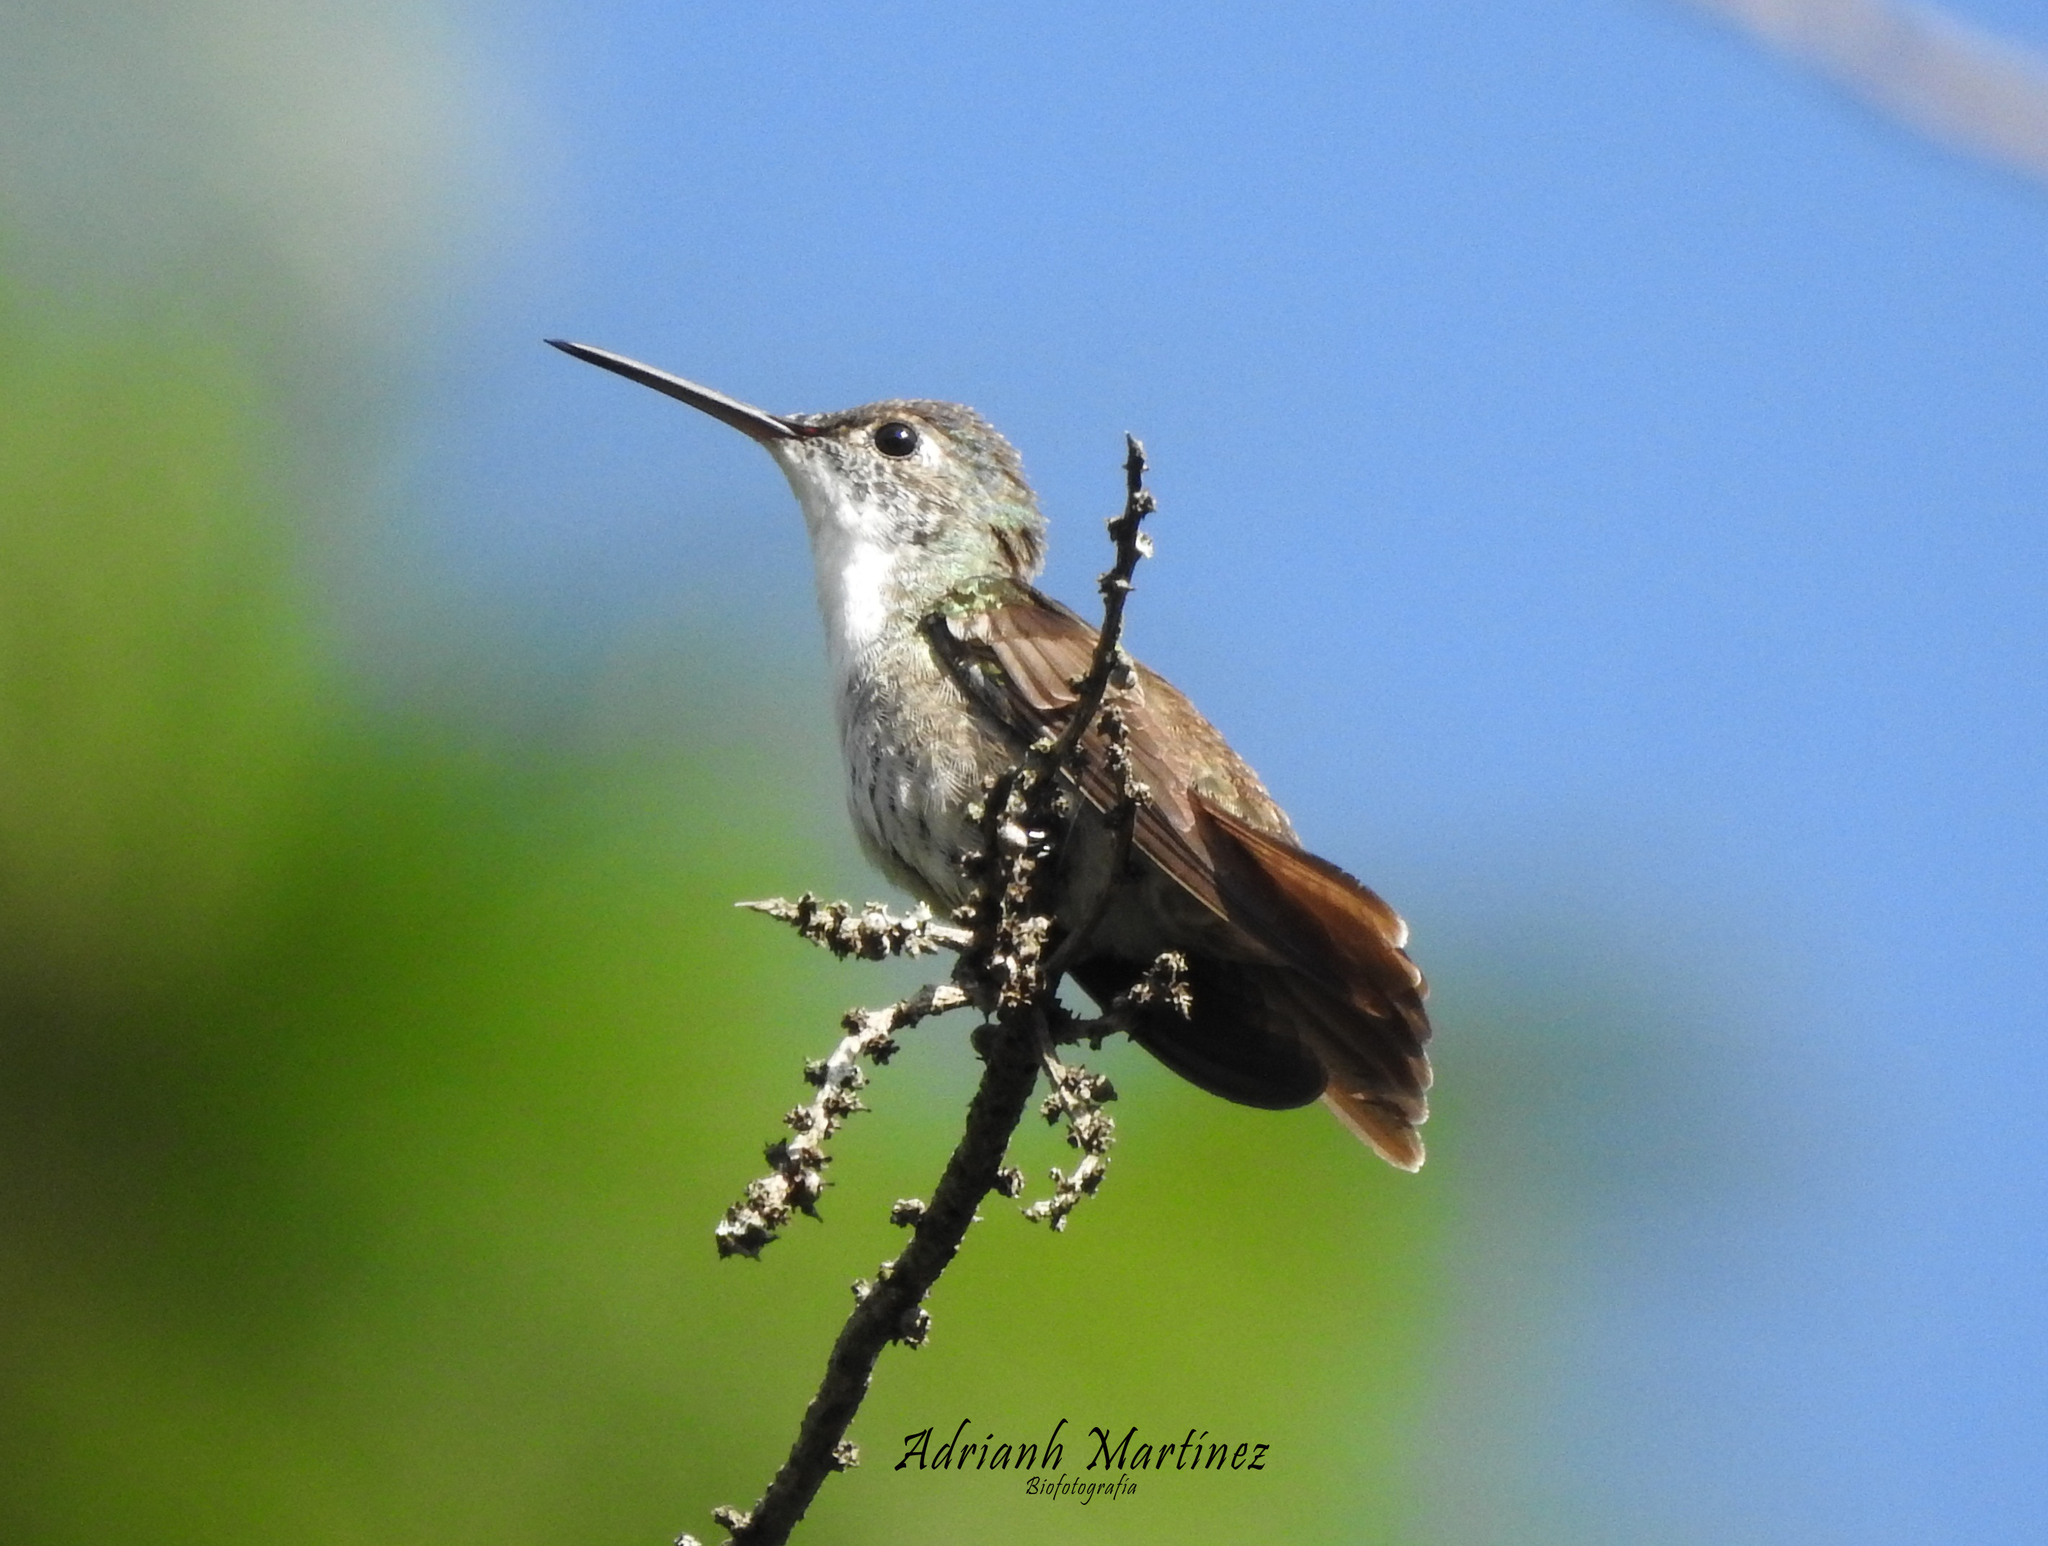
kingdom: Animalia
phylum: Chordata
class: Aves
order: Apodiformes
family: Trochilidae
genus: Saucerottia
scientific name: Saucerottia cyanocephala
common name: Azure-crowned hummingbird
